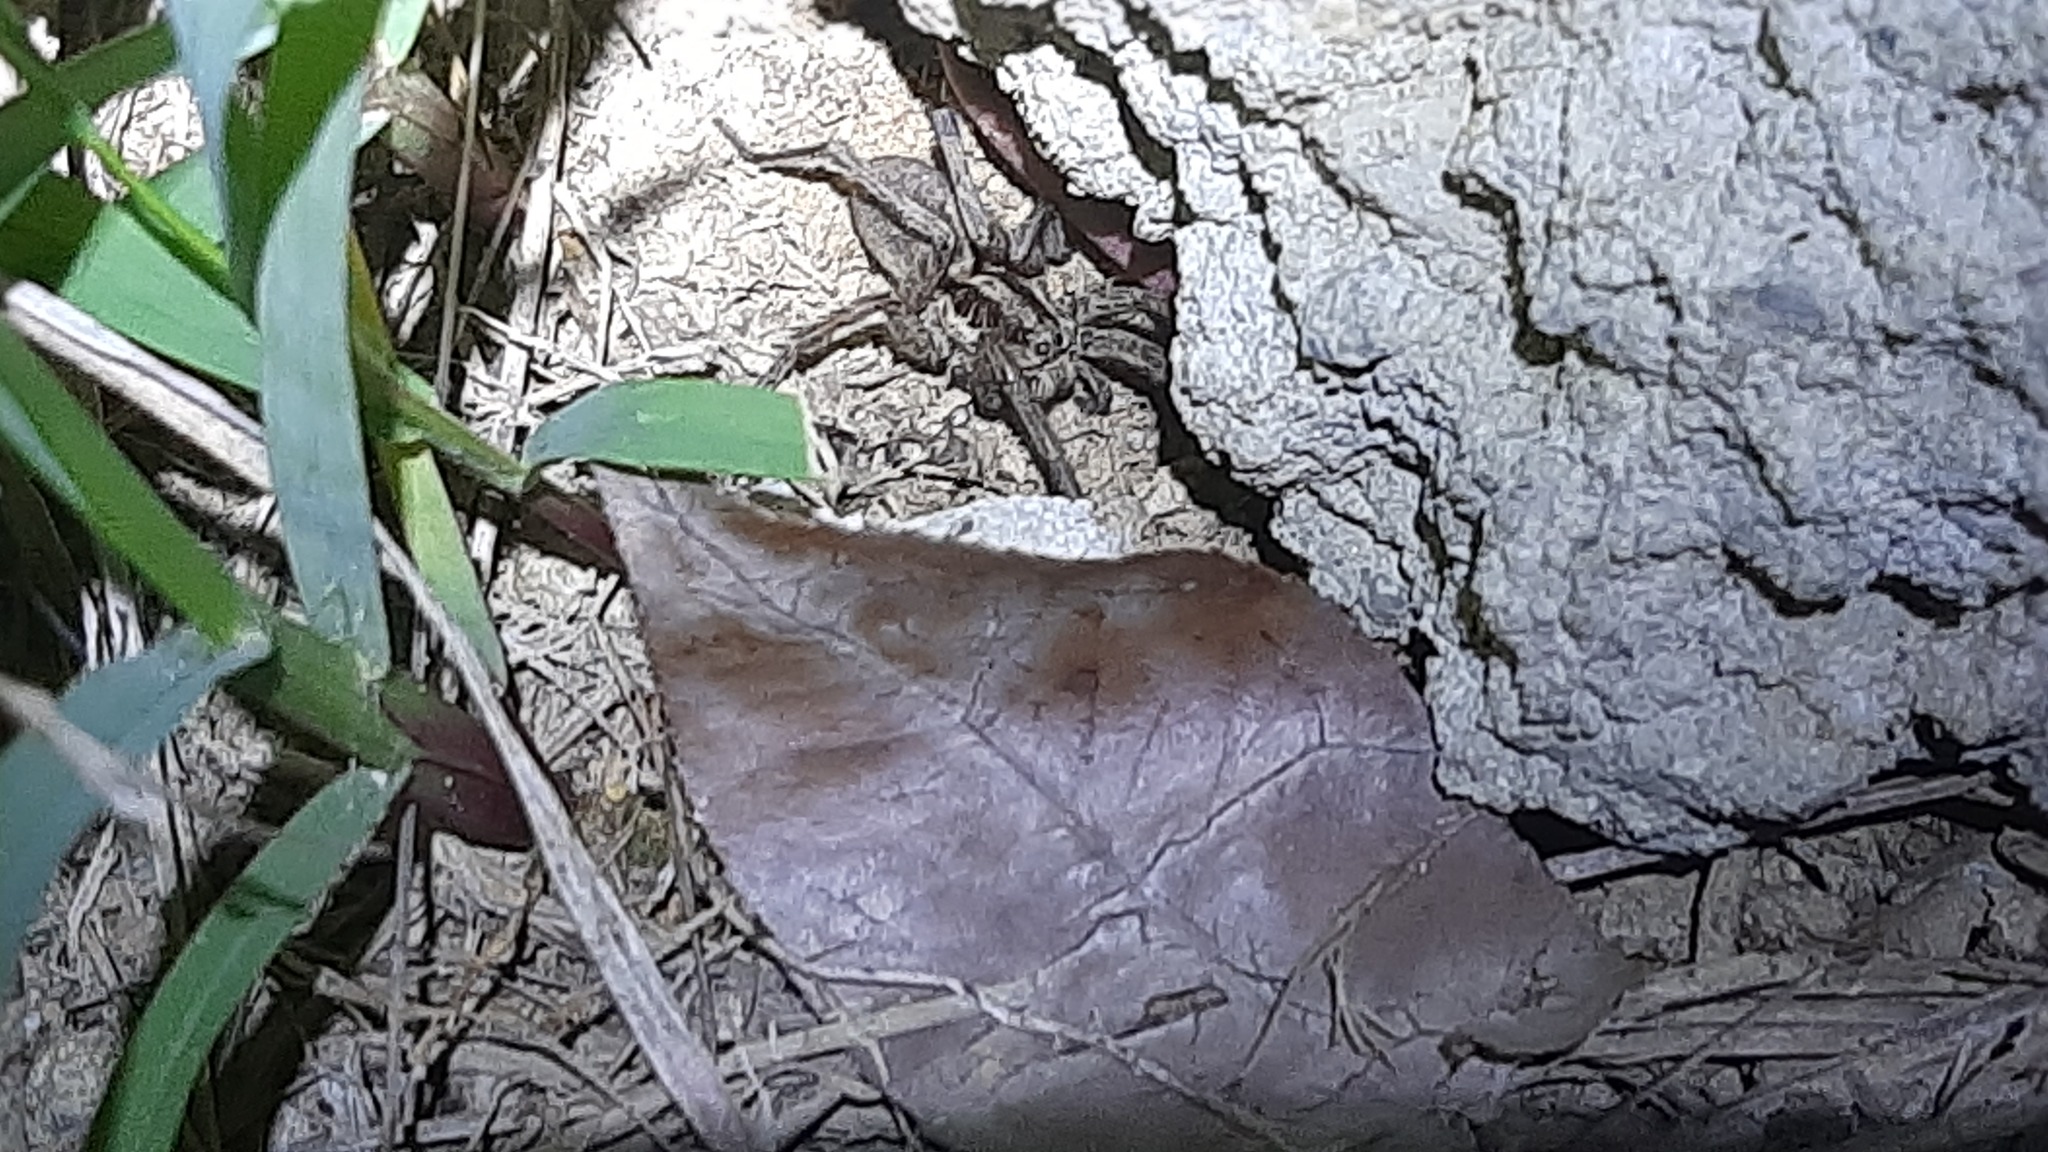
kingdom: Animalia
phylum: Arthropoda
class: Arachnida
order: Araneae
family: Lycosidae
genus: Hogna
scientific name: Hogna radiata
